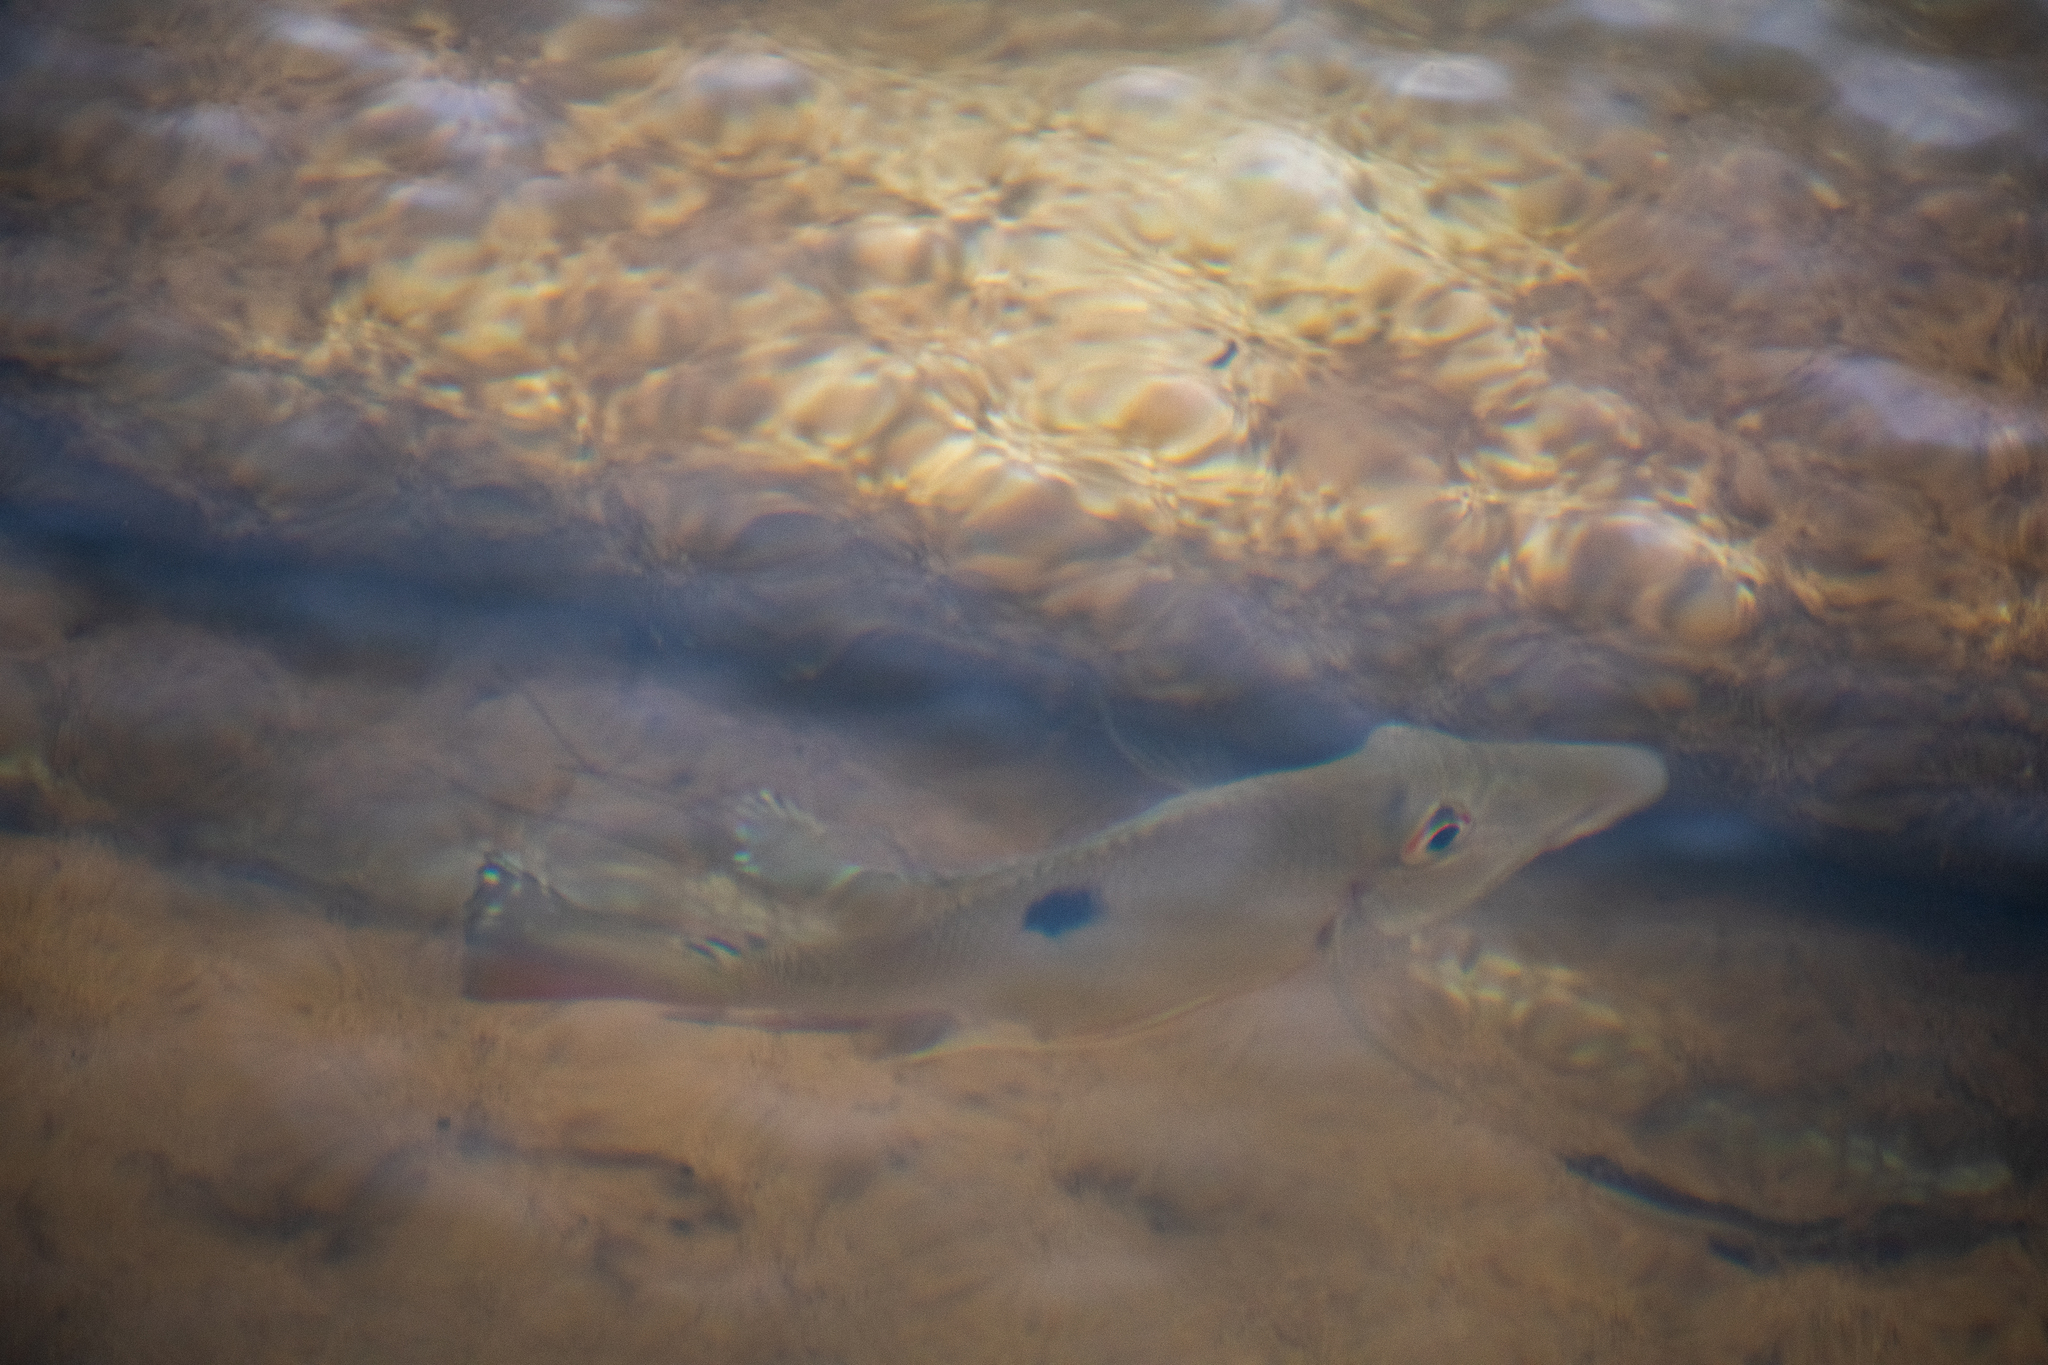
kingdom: Animalia
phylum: Chordata
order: Perciformes
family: Cichlidae
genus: Satanoperca
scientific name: Satanoperca lilith
